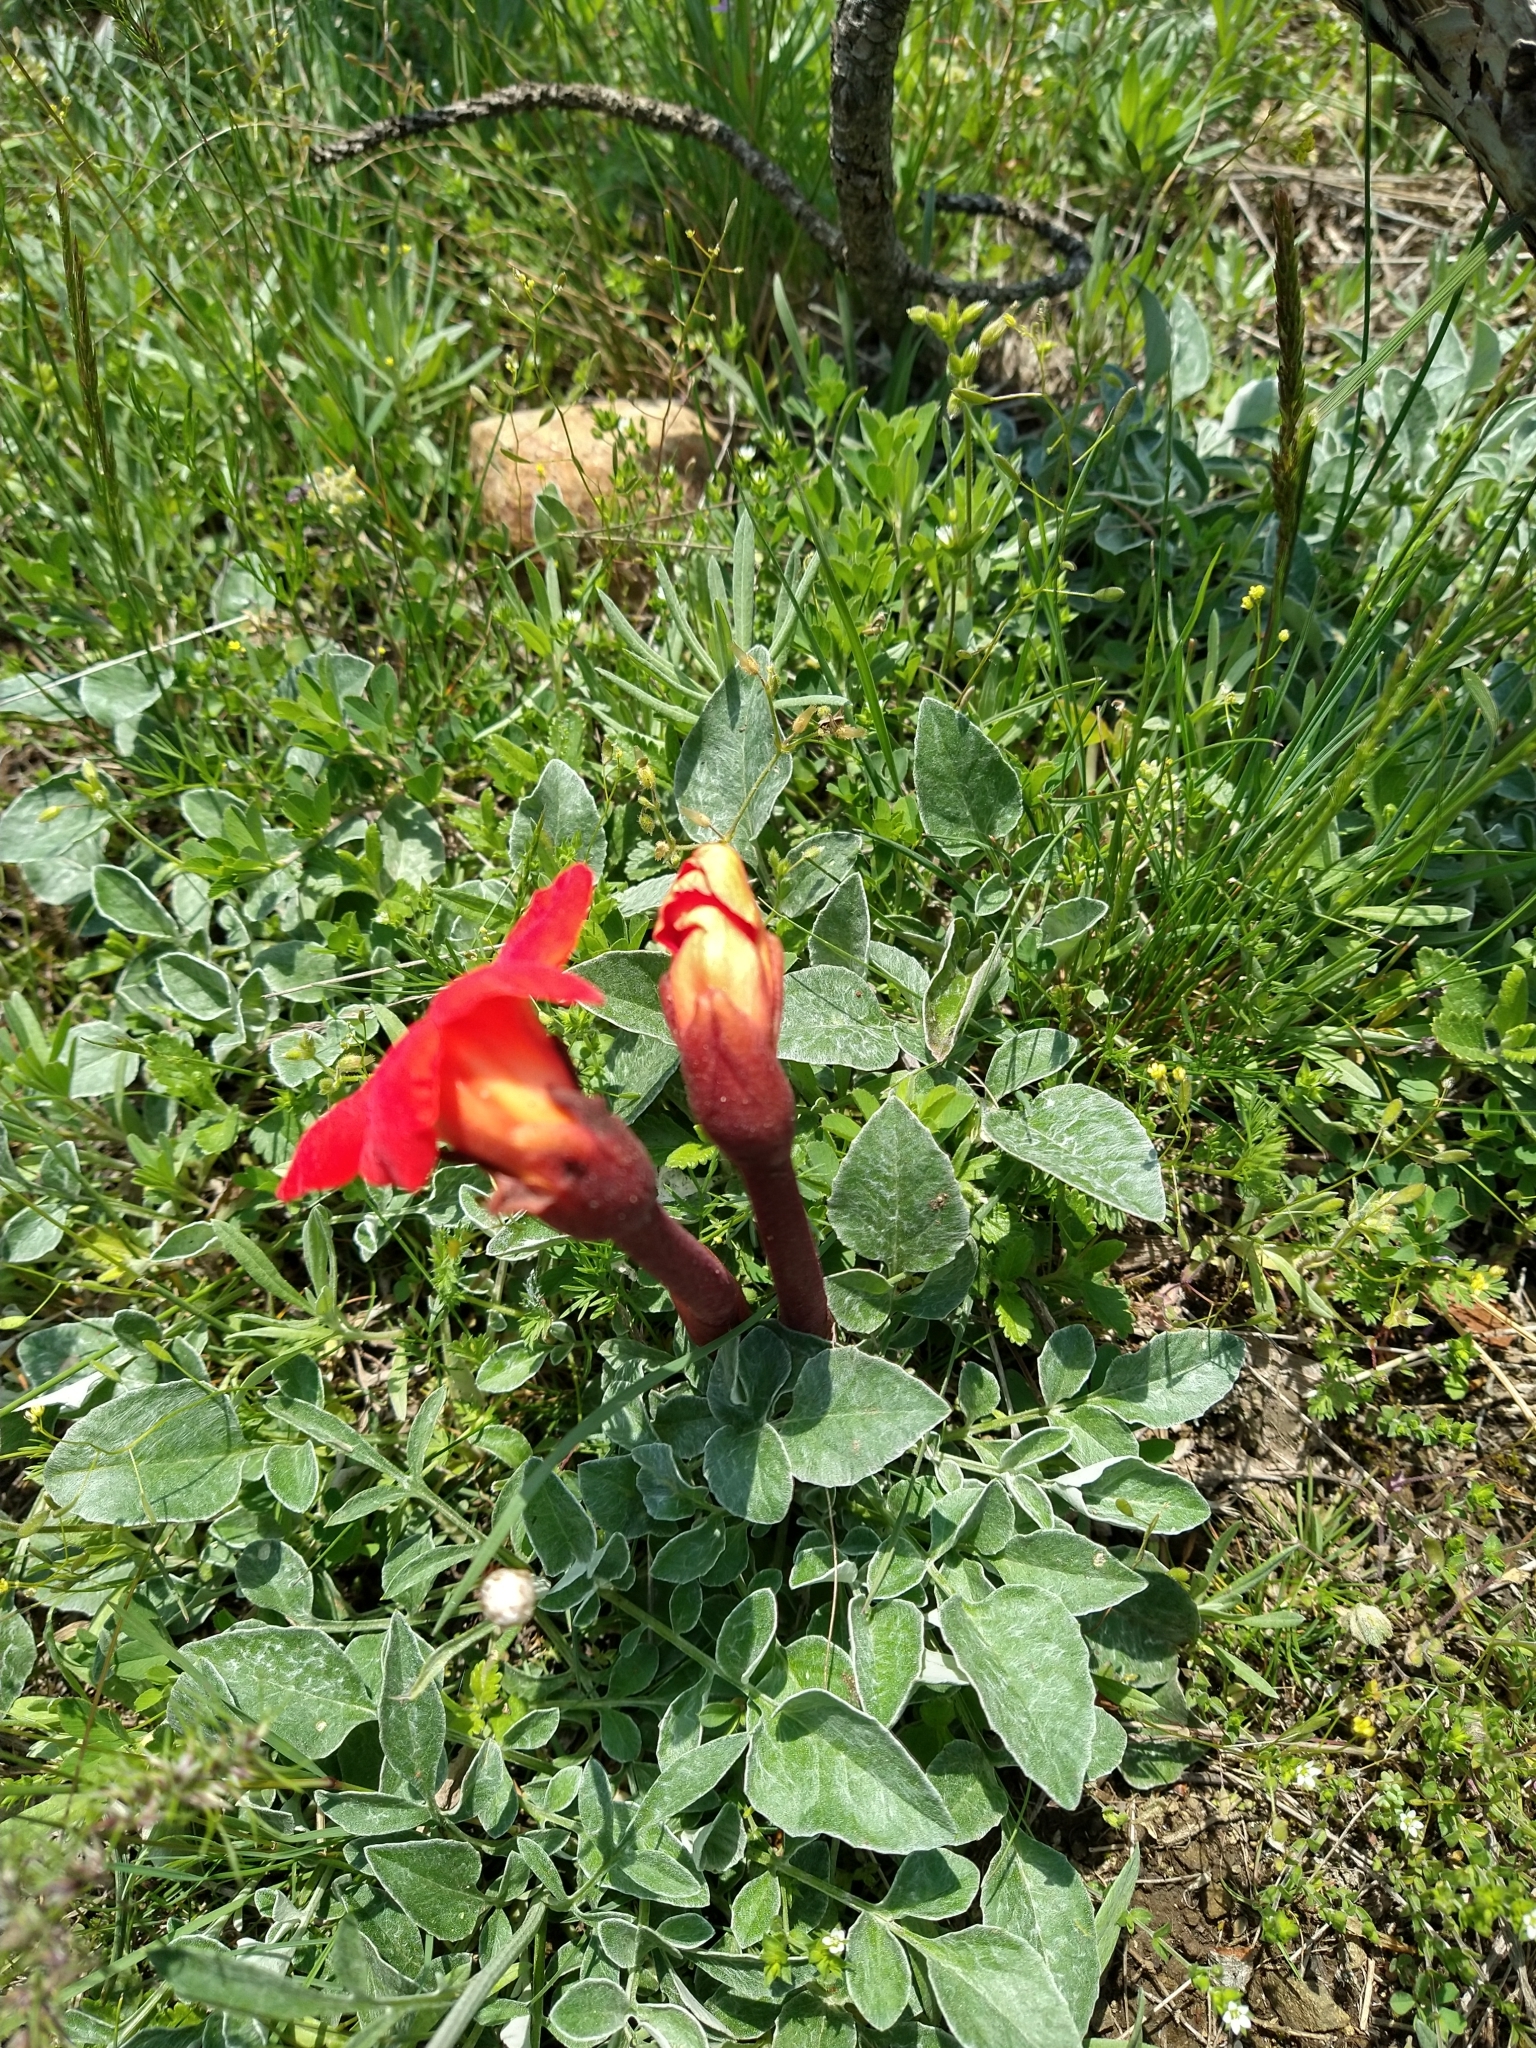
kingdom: Plantae
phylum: Tracheophyta
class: Magnoliopsida
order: Lamiales
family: Orobanchaceae
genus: Diphelypaea
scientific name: Diphelypaea coccinea
